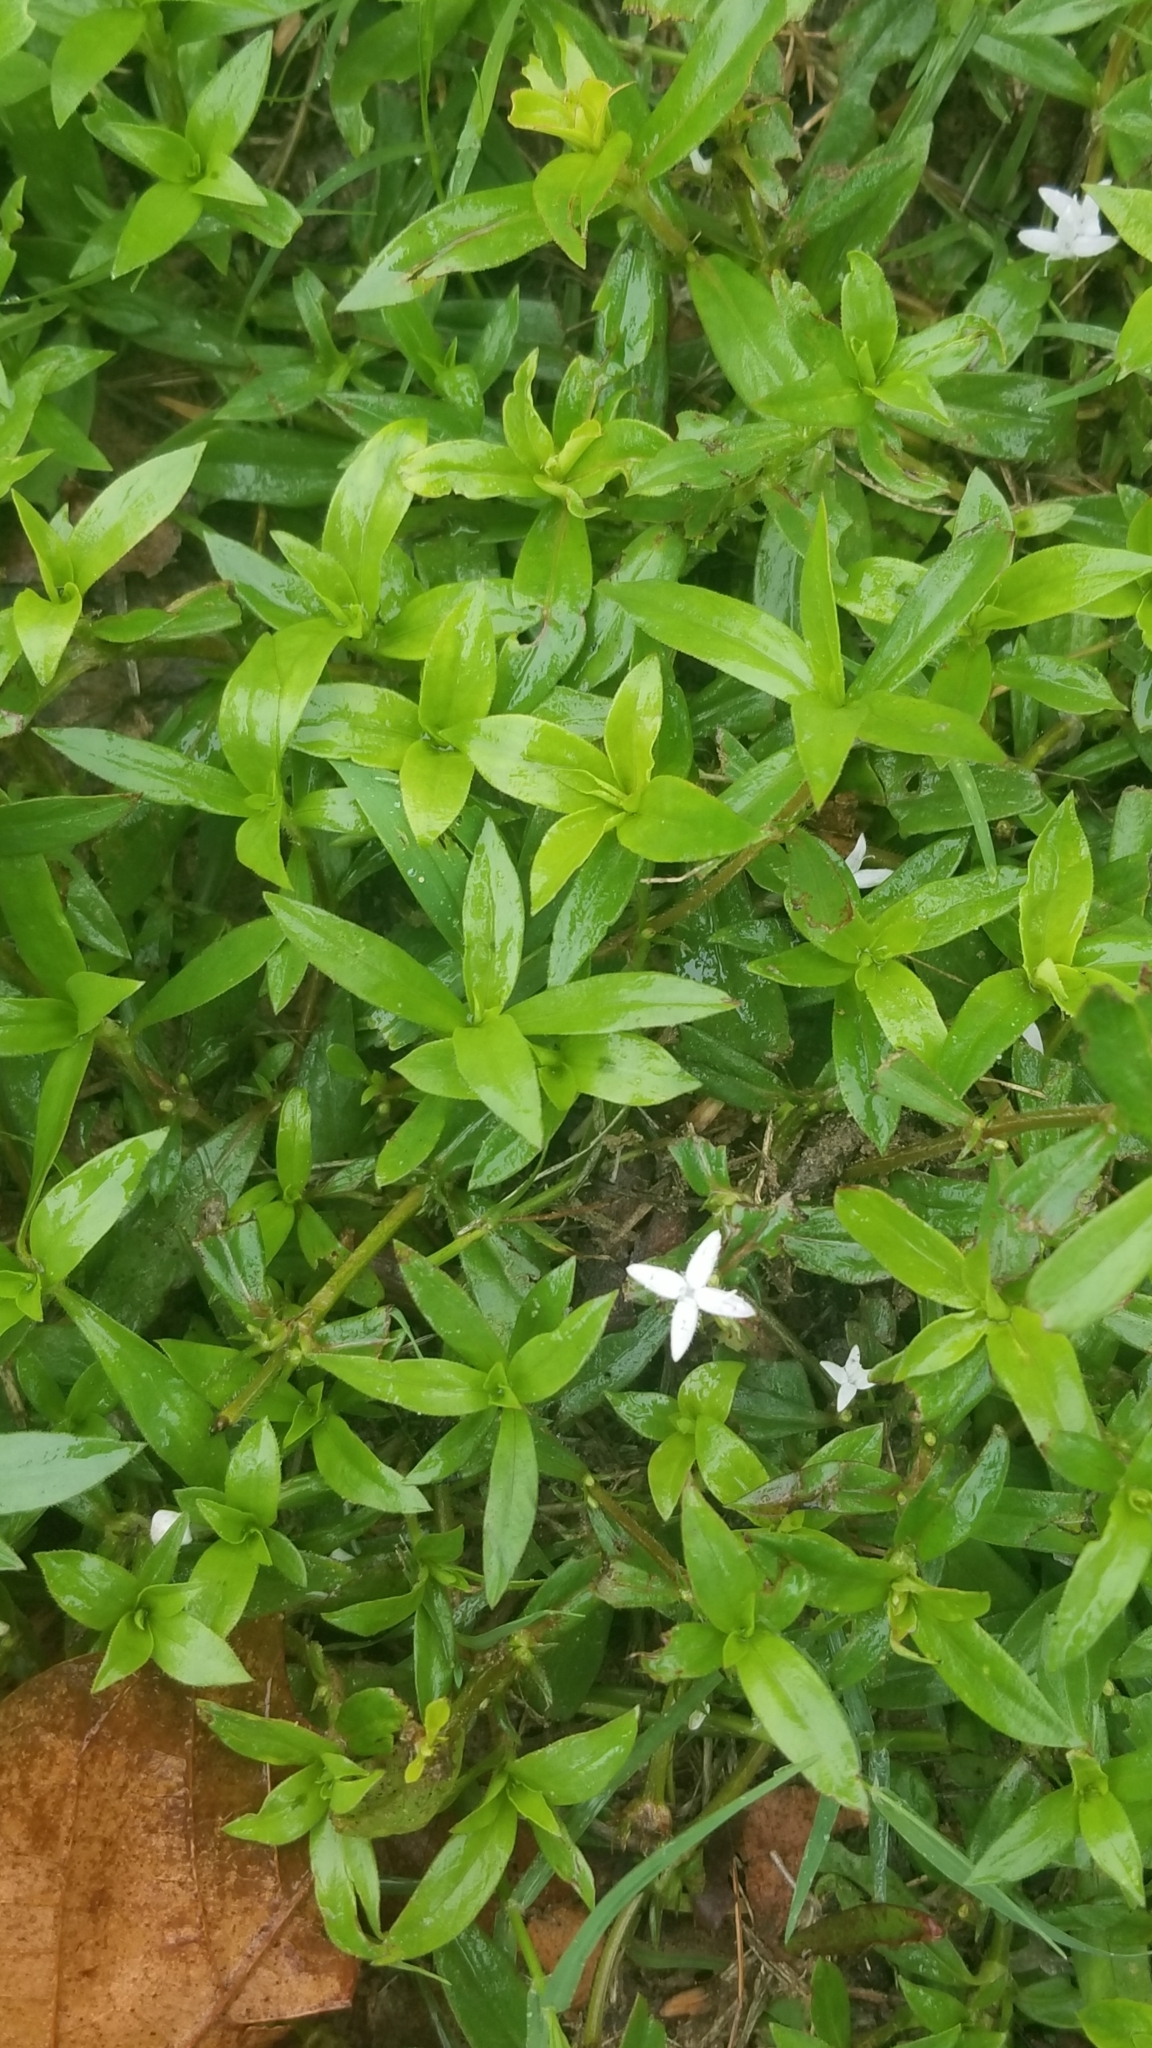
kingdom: Plantae
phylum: Tracheophyta
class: Magnoliopsida
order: Gentianales
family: Rubiaceae
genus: Diodia
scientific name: Diodia virginiana
